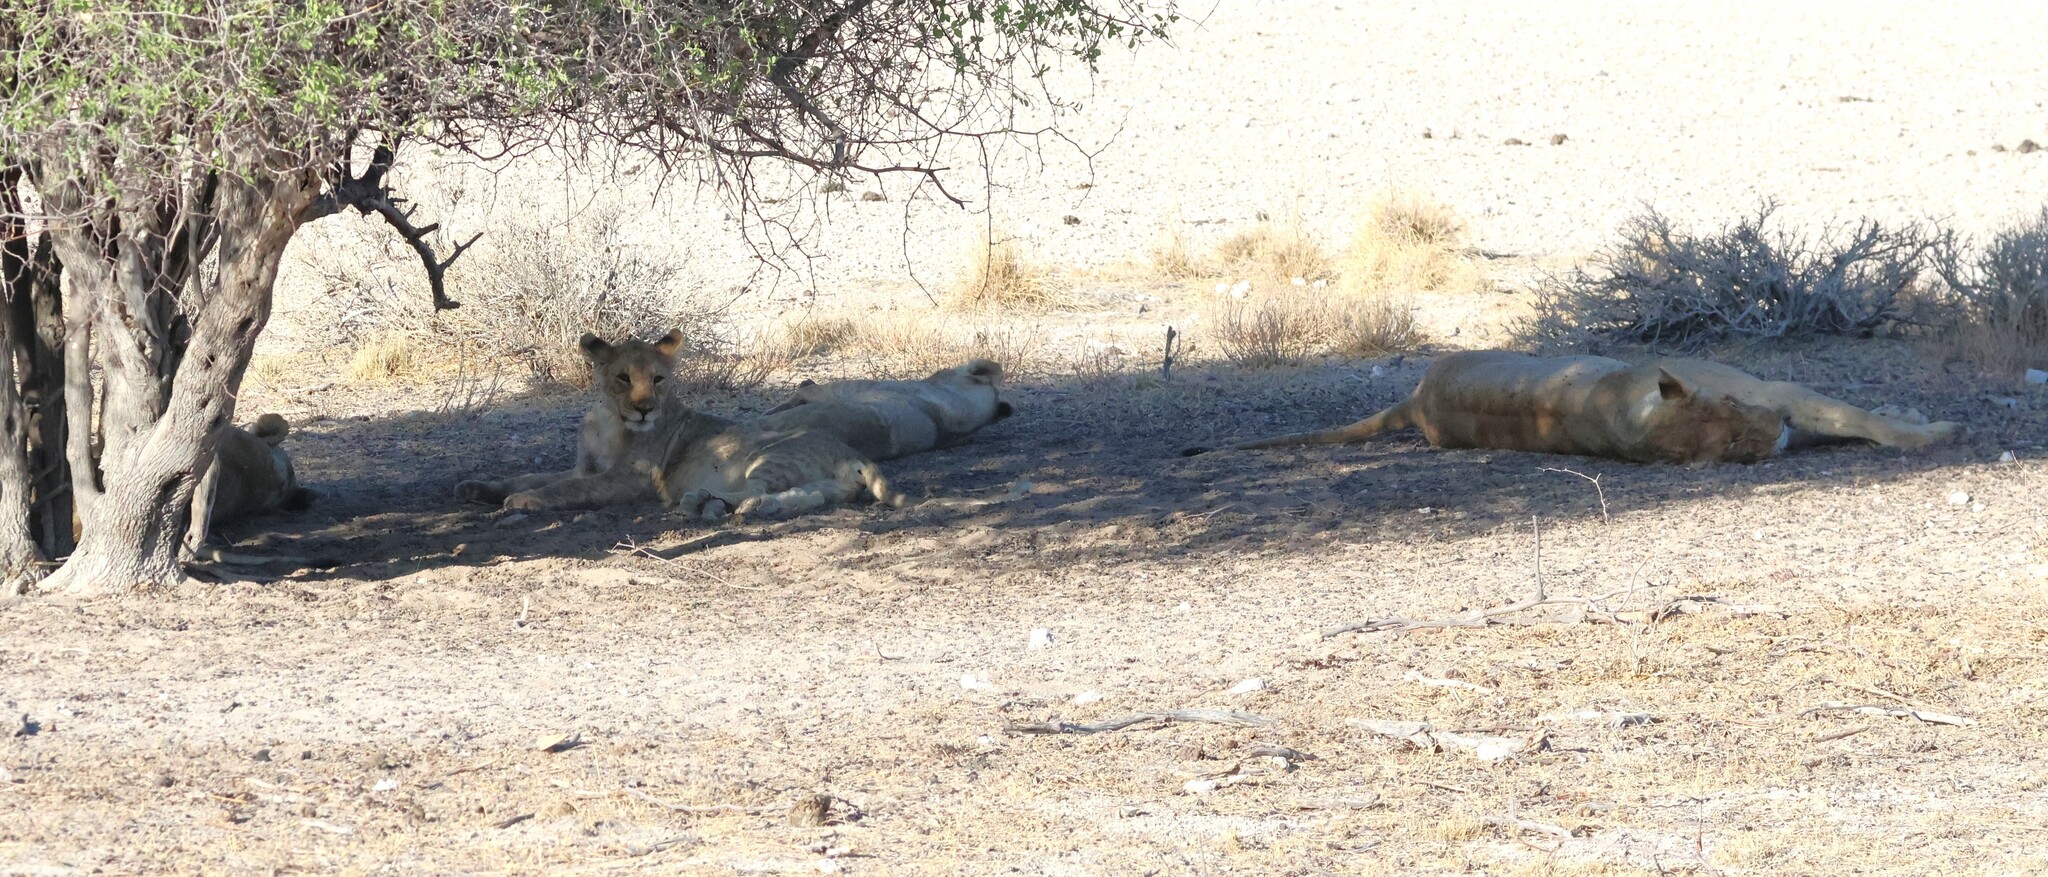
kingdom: Animalia
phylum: Chordata
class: Mammalia
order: Carnivora
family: Felidae
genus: Panthera
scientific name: Panthera leo
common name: Lion
